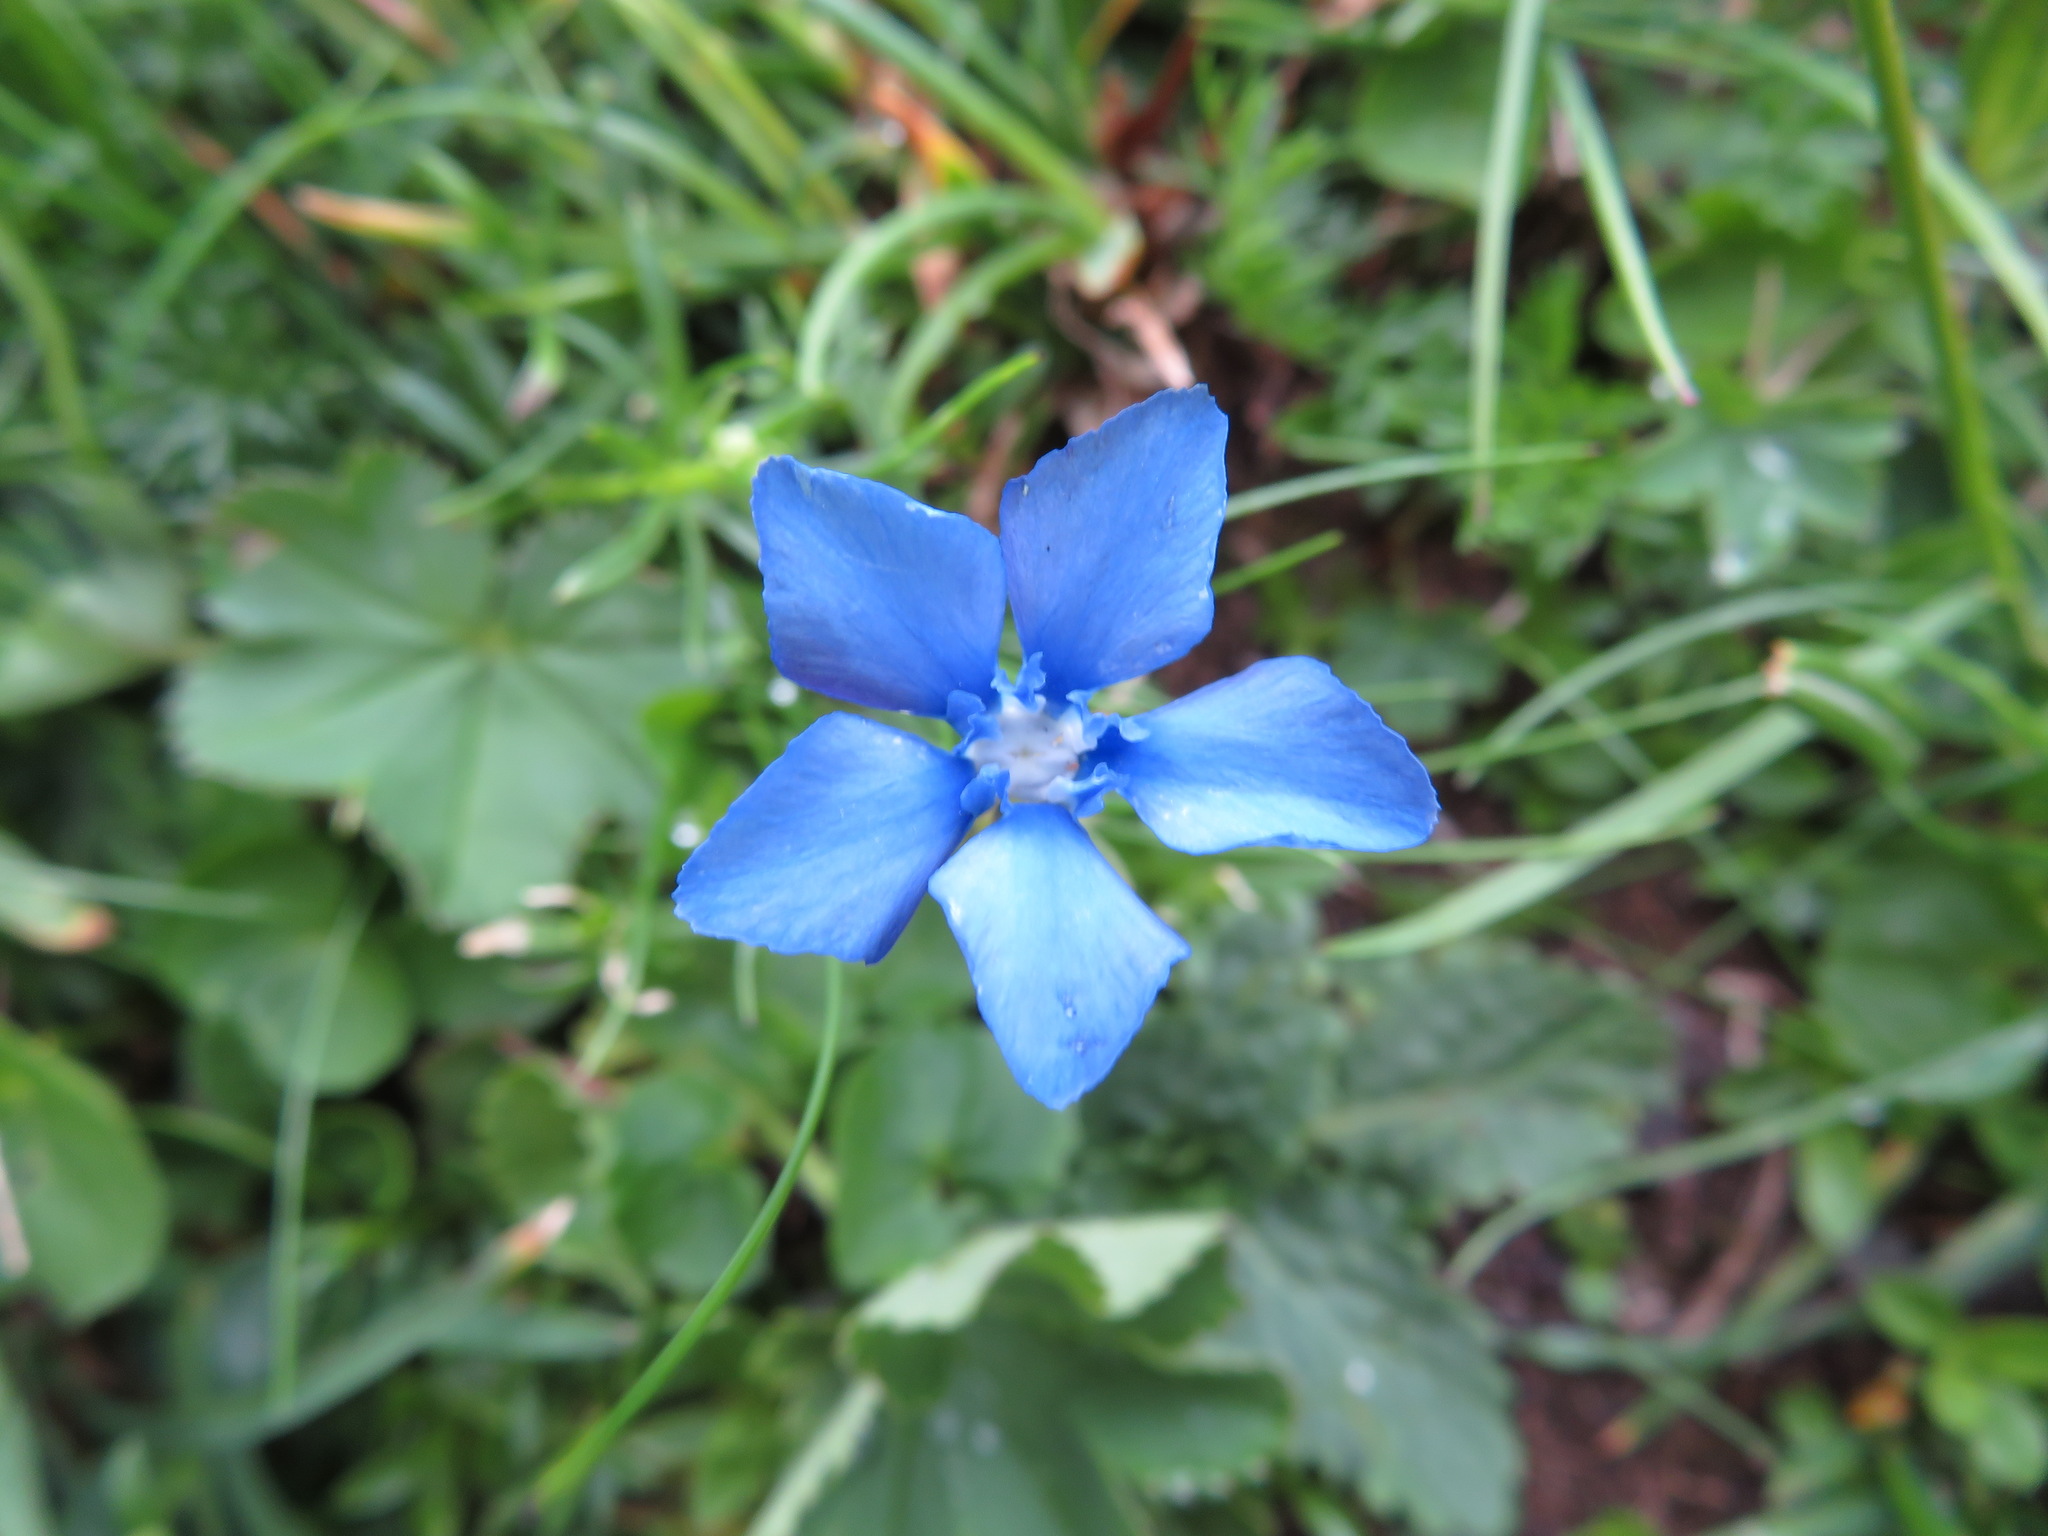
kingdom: Plantae
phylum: Tracheophyta
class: Magnoliopsida
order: Gentianales
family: Gentianaceae
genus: Gentiana
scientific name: Gentiana verna
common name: Spring gentian
